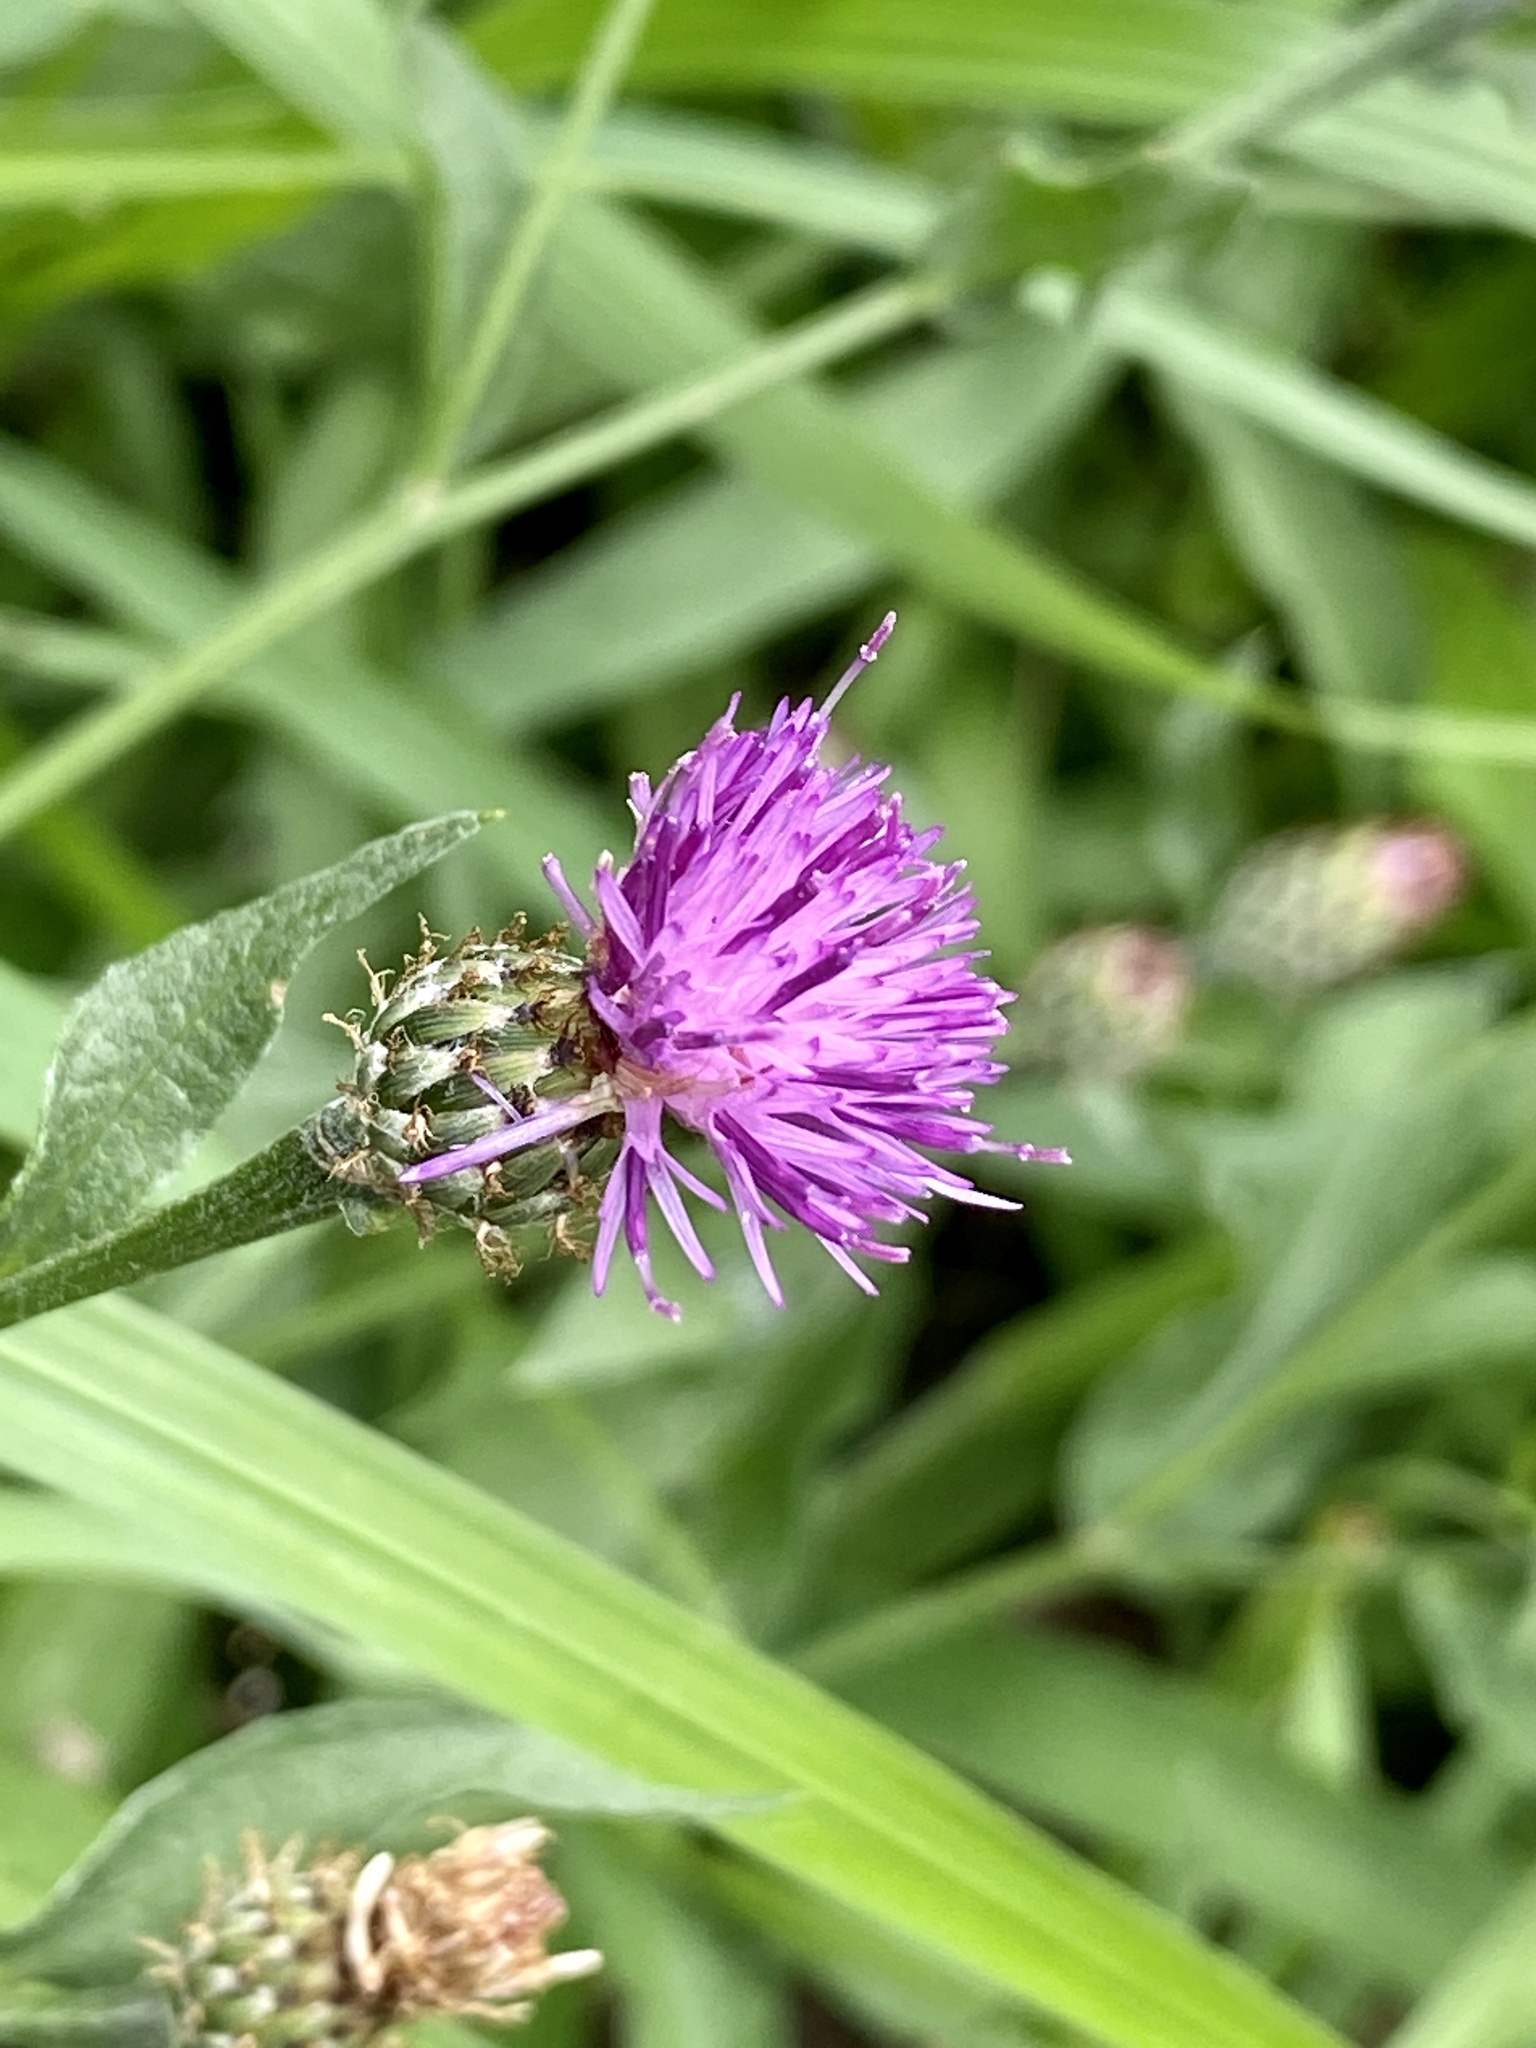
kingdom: Plantae
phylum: Tracheophyta
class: Magnoliopsida
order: Asterales
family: Asteraceae
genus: Centaurea
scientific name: Centaurea nigrescens
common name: Tyrol knapweed
